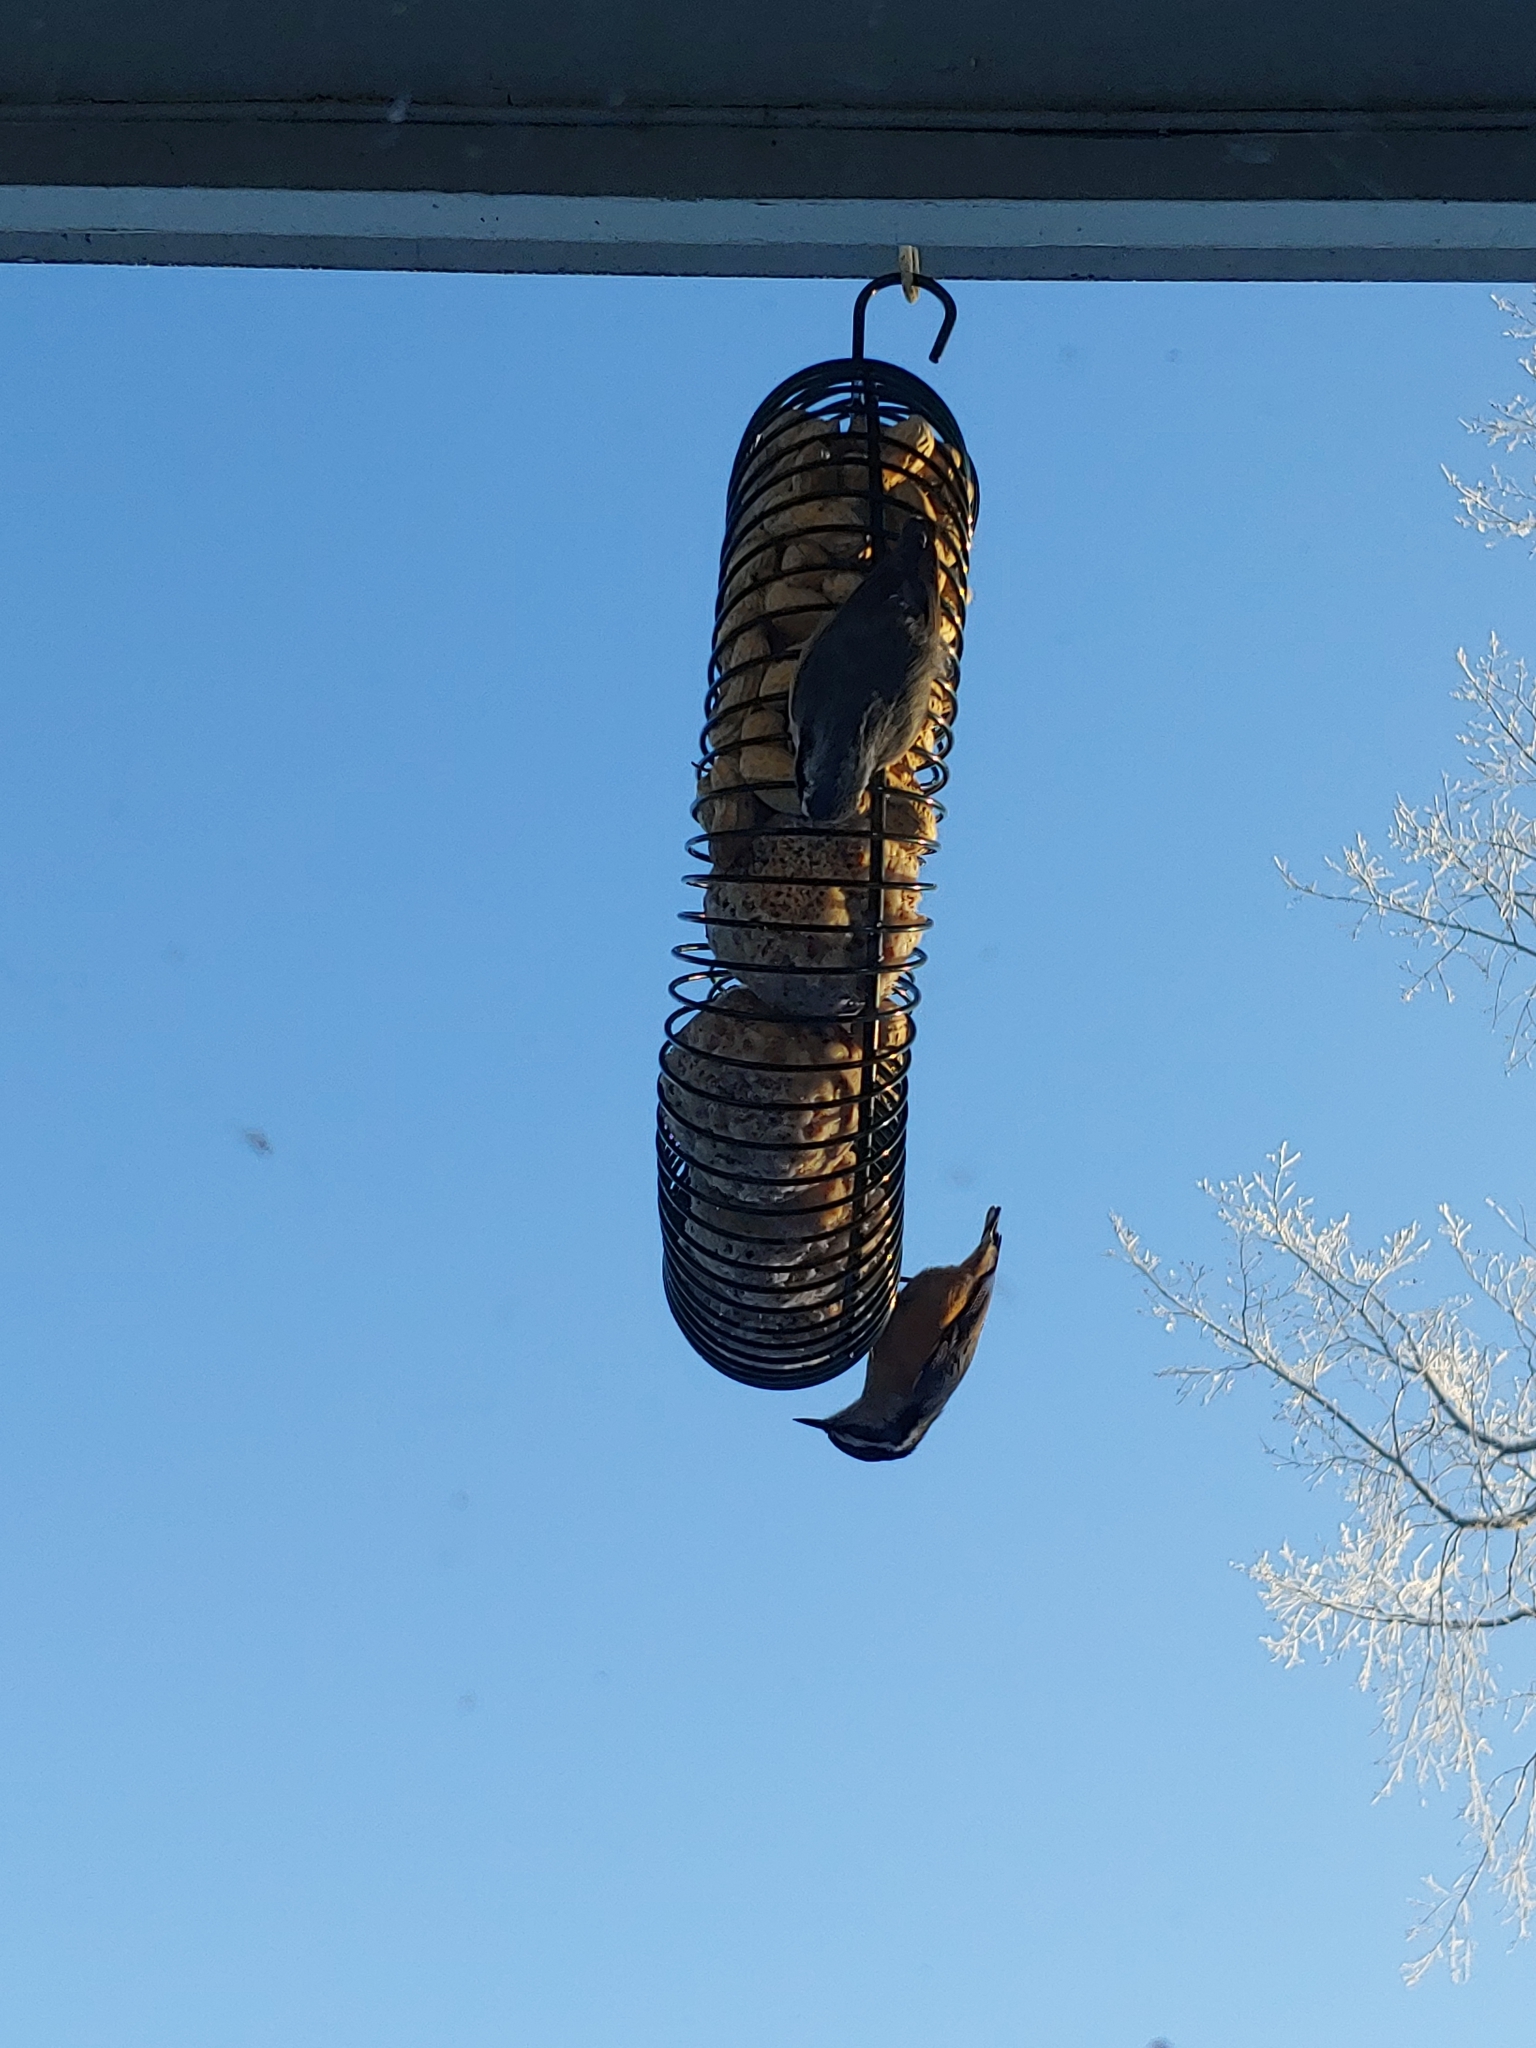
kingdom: Animalia
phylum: Chordata
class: Aves
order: Passeriformes
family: Sittidae
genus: Sitta
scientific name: Sitta canadensis
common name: Red-breasted nuthatch
